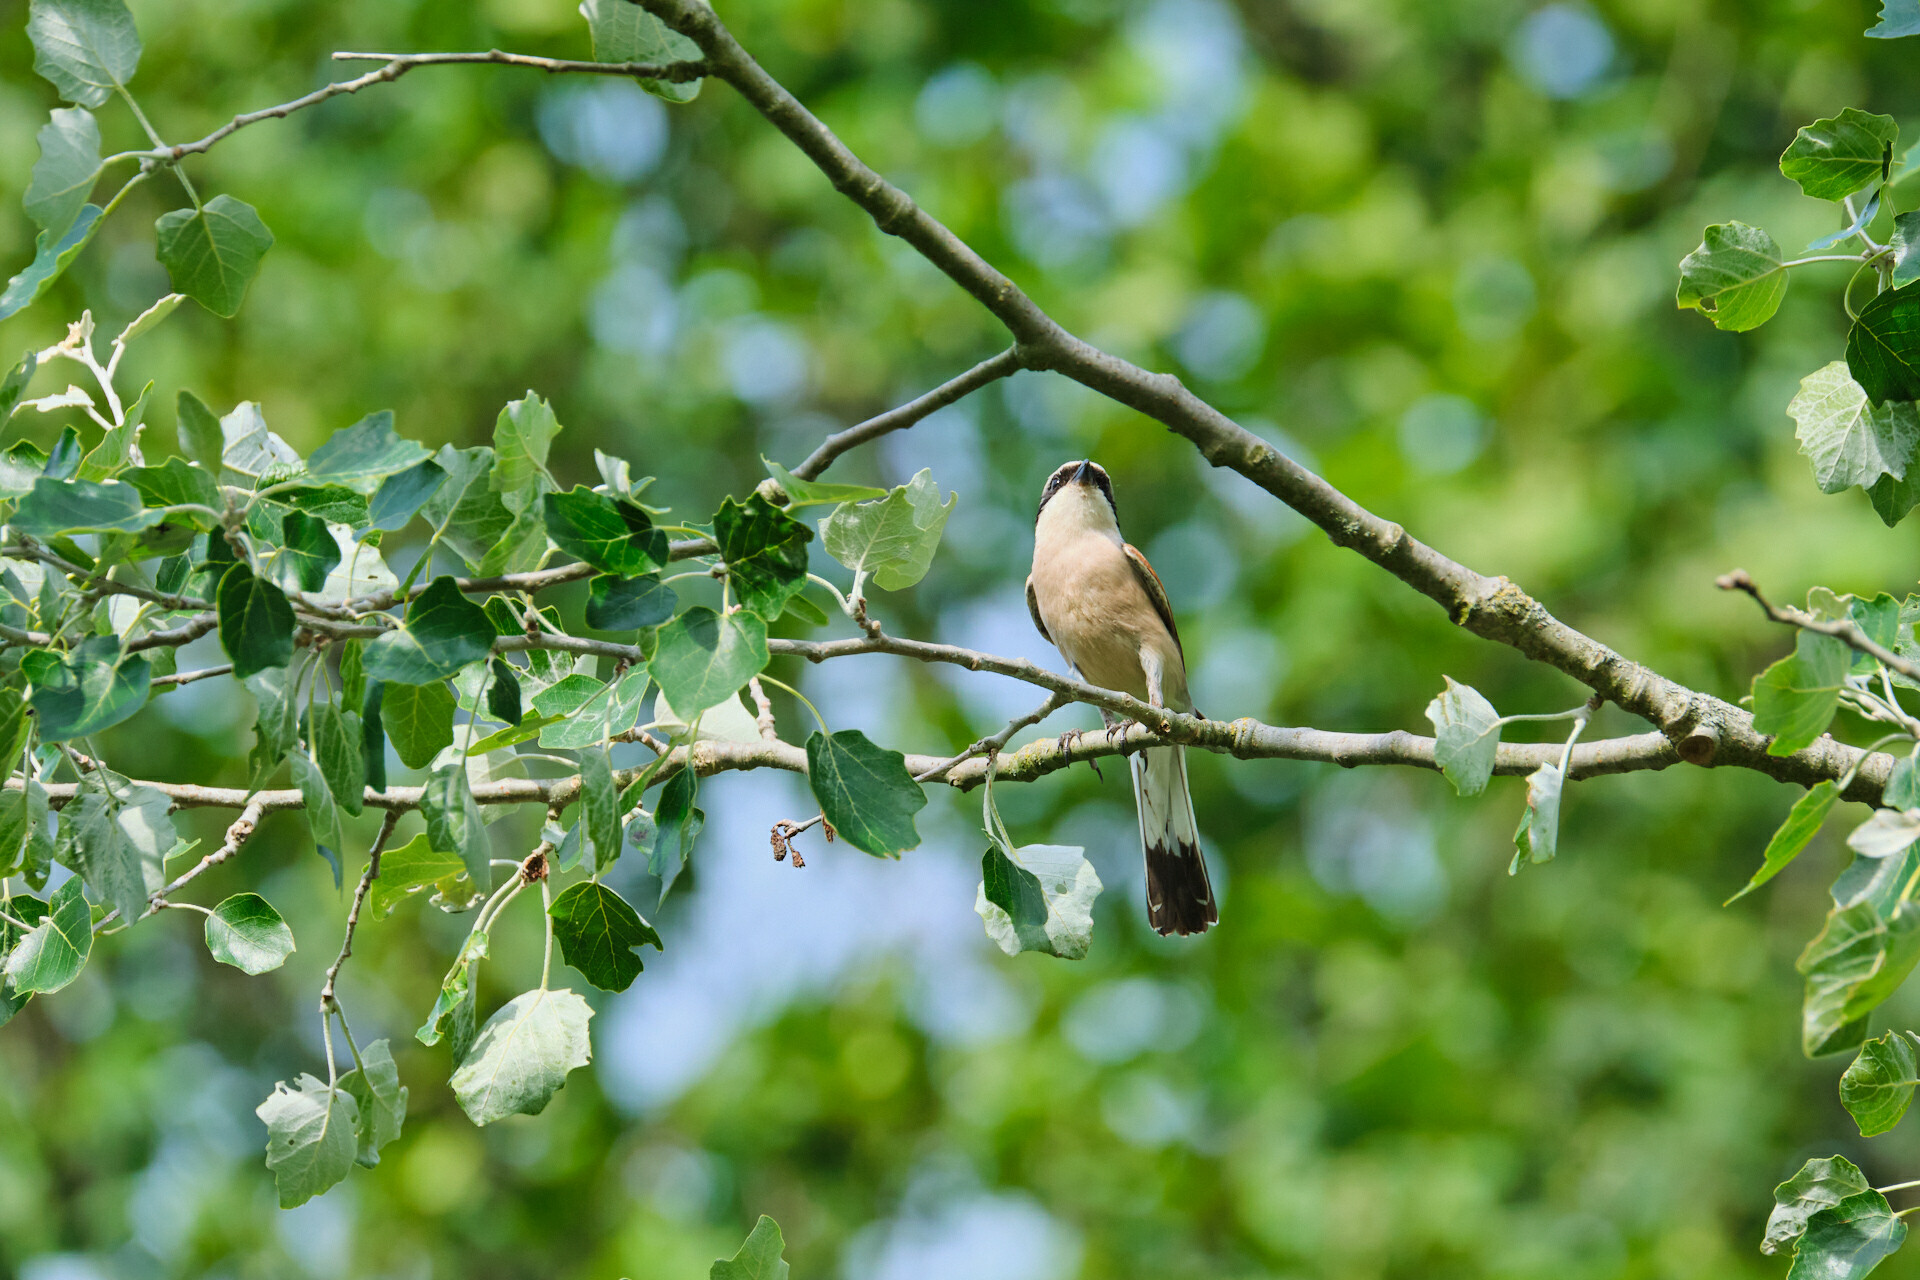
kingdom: Animalia
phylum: Chordata
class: Aves
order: Passeriformes
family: Laniidae
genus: Lanius
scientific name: Lanius collurio
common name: Red-backed shrike
